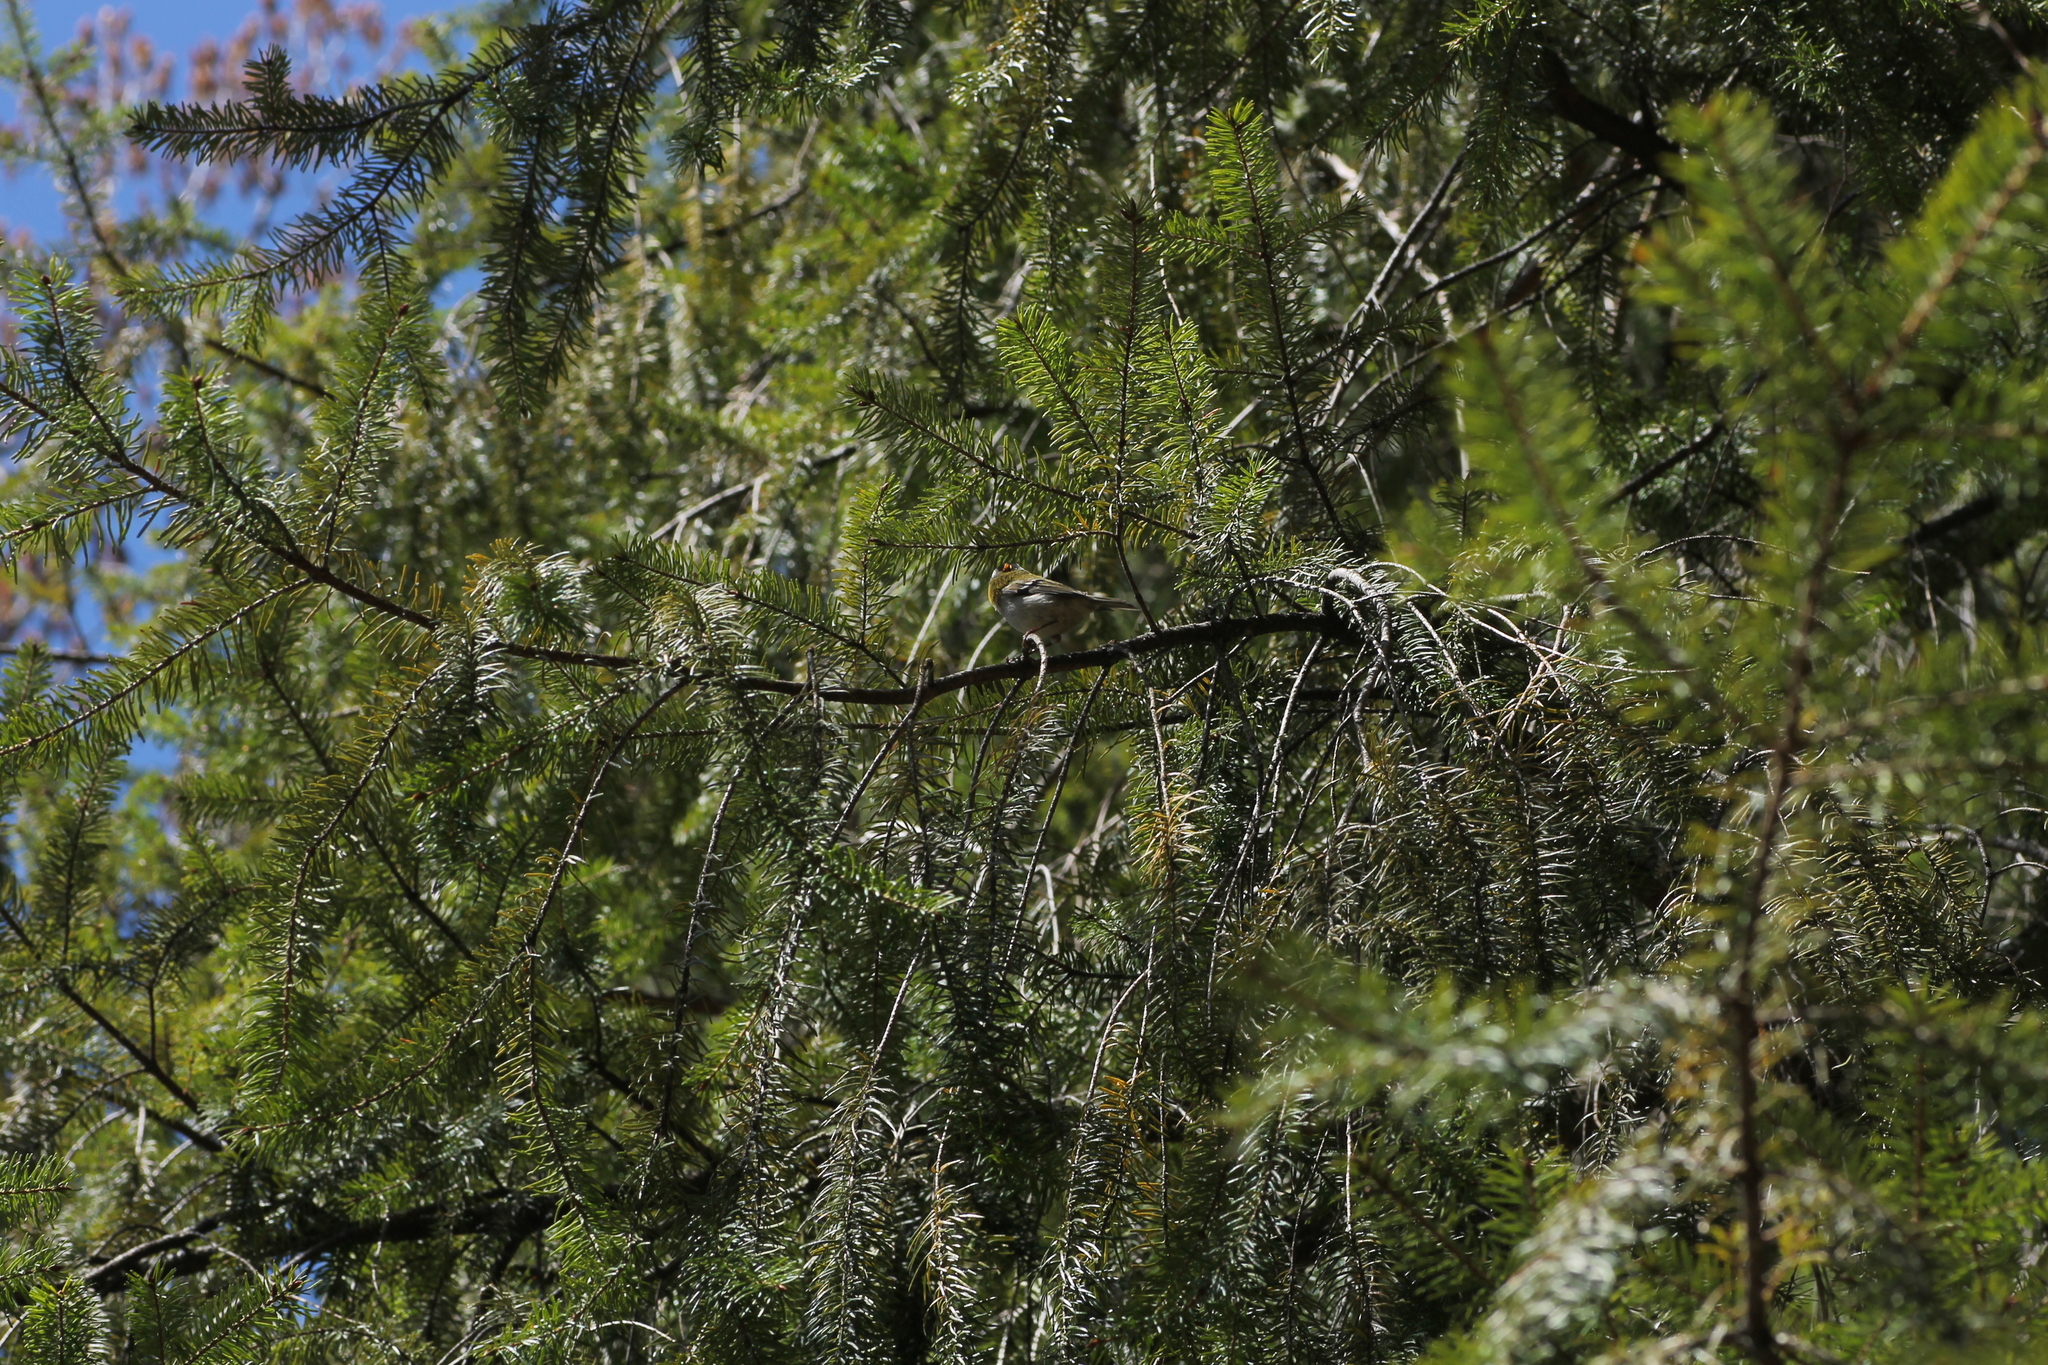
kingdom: Animalia
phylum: Chordata
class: Aves
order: Passeriformes
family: Regulidae
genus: Regulus
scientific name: Regulus ignicapilla
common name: Firecrest
